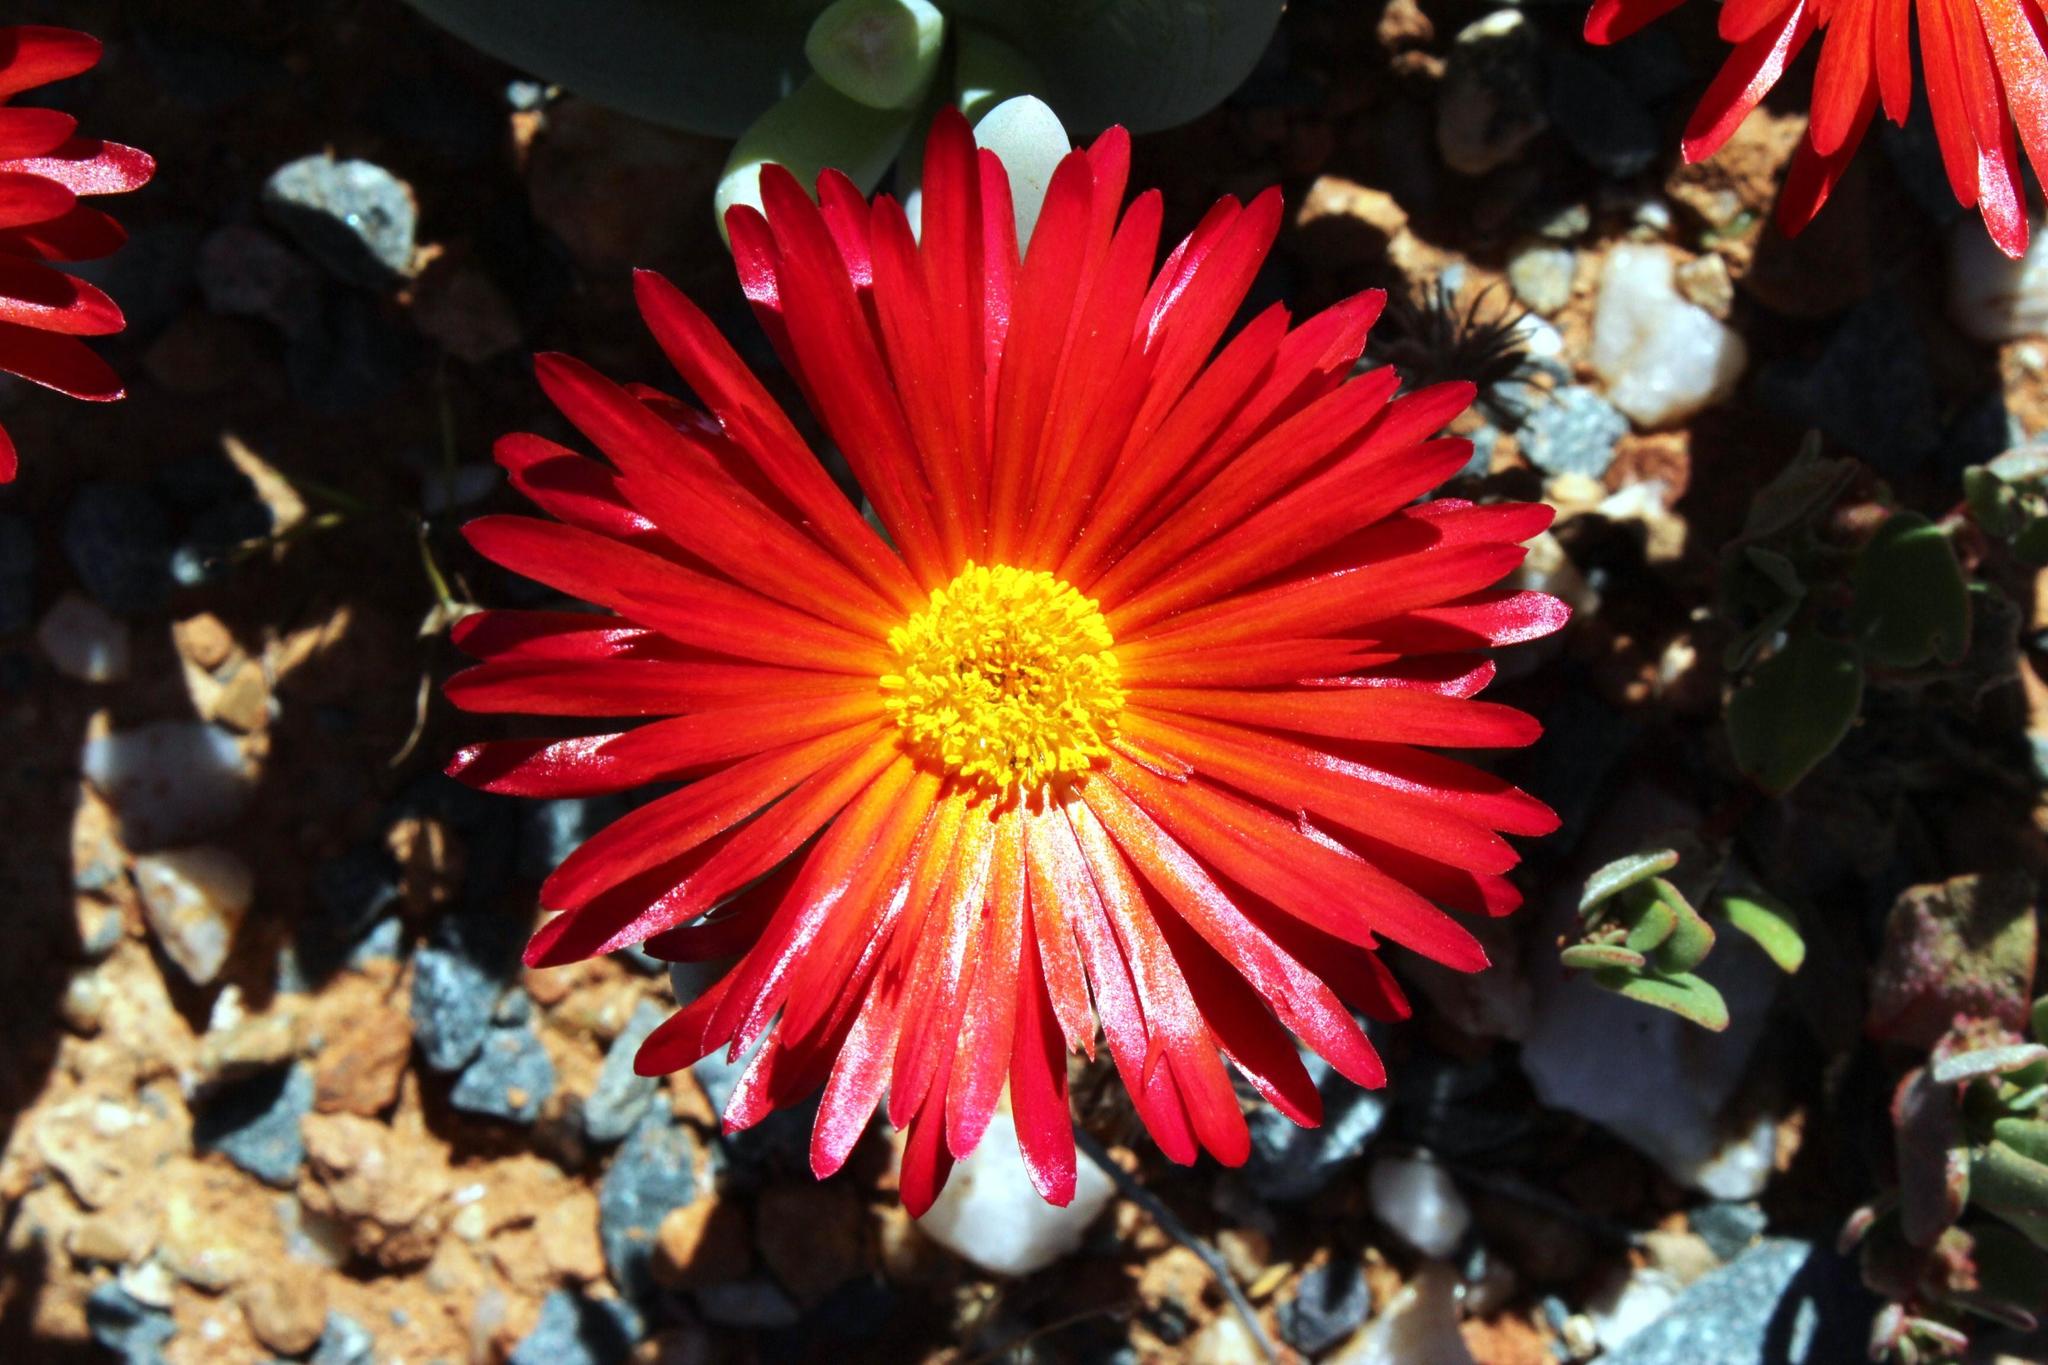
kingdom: Plantae
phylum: Tracheophyta
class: Magnoliopsida
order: Caryophyllales
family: Aizoaceae
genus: Malephora
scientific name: Malephora purpureocrocea
